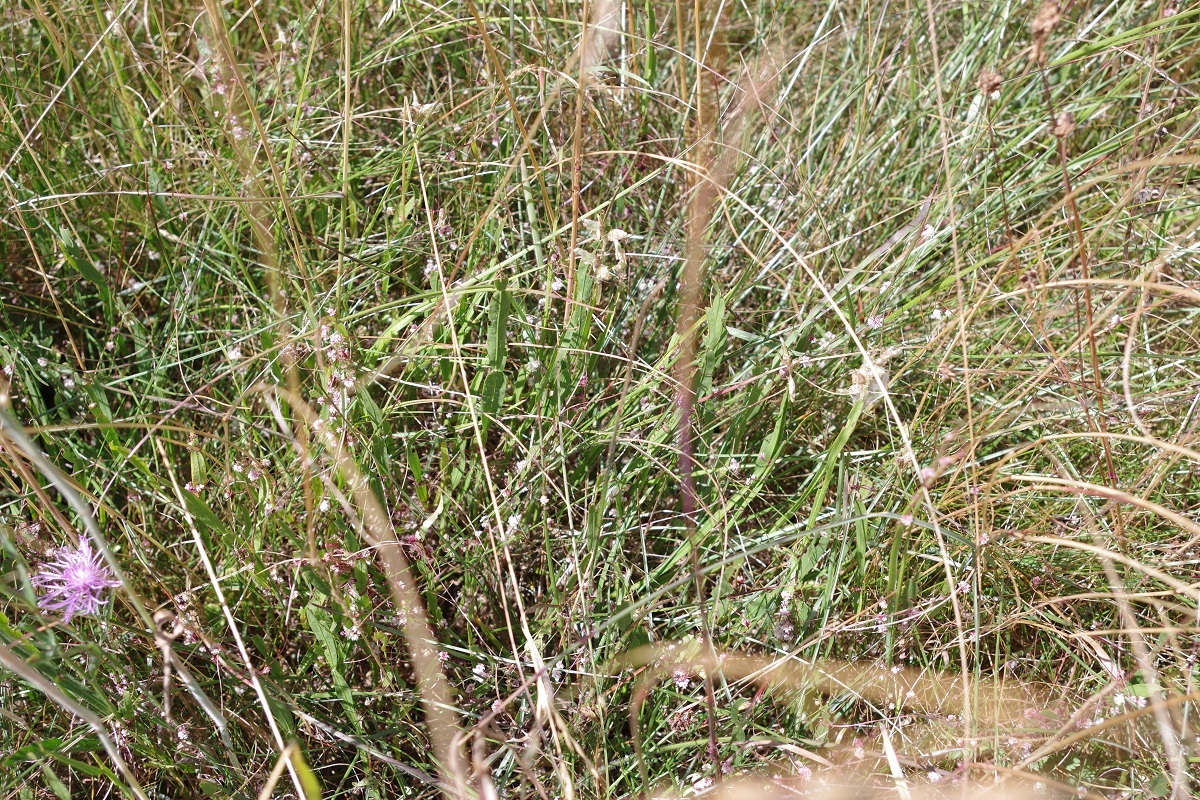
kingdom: Plantae
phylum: Tracheophyta
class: Magnoliopsida
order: Fabales
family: Fabaceae
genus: Genista
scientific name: Genista sagittalis
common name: Winged greenweed
